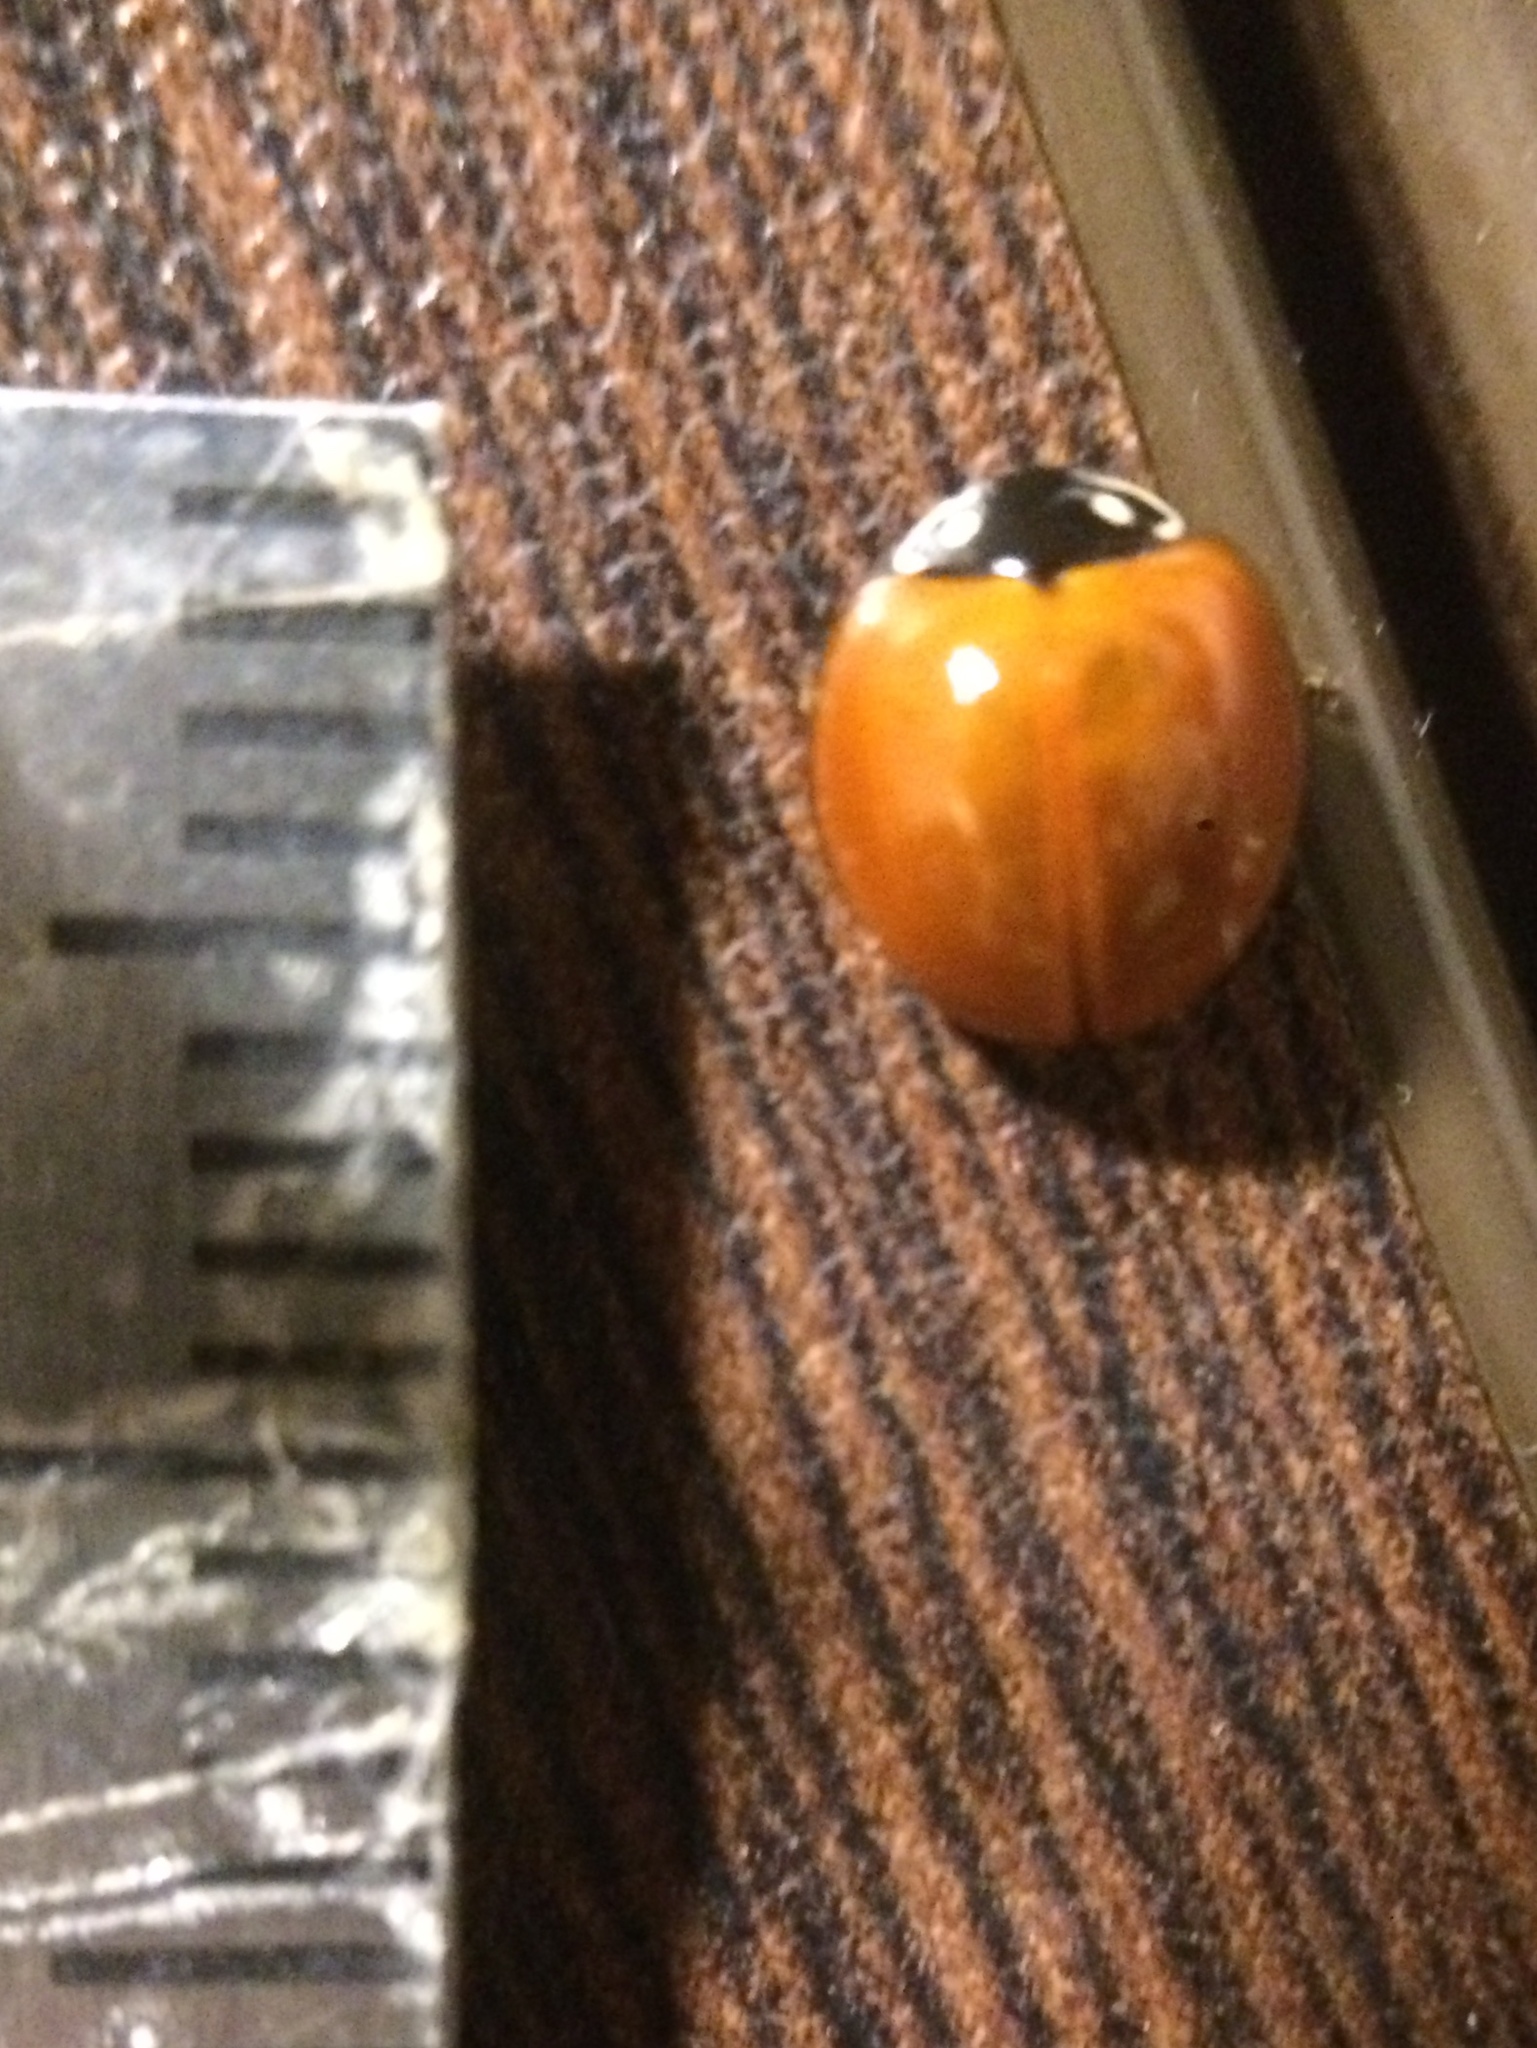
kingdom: Animalia
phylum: Arthropoda
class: Insecta
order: Coleoptera
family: Coccinellidae
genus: Cycloneda
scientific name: Cycloneda sanguinea
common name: Ladybird beetle
